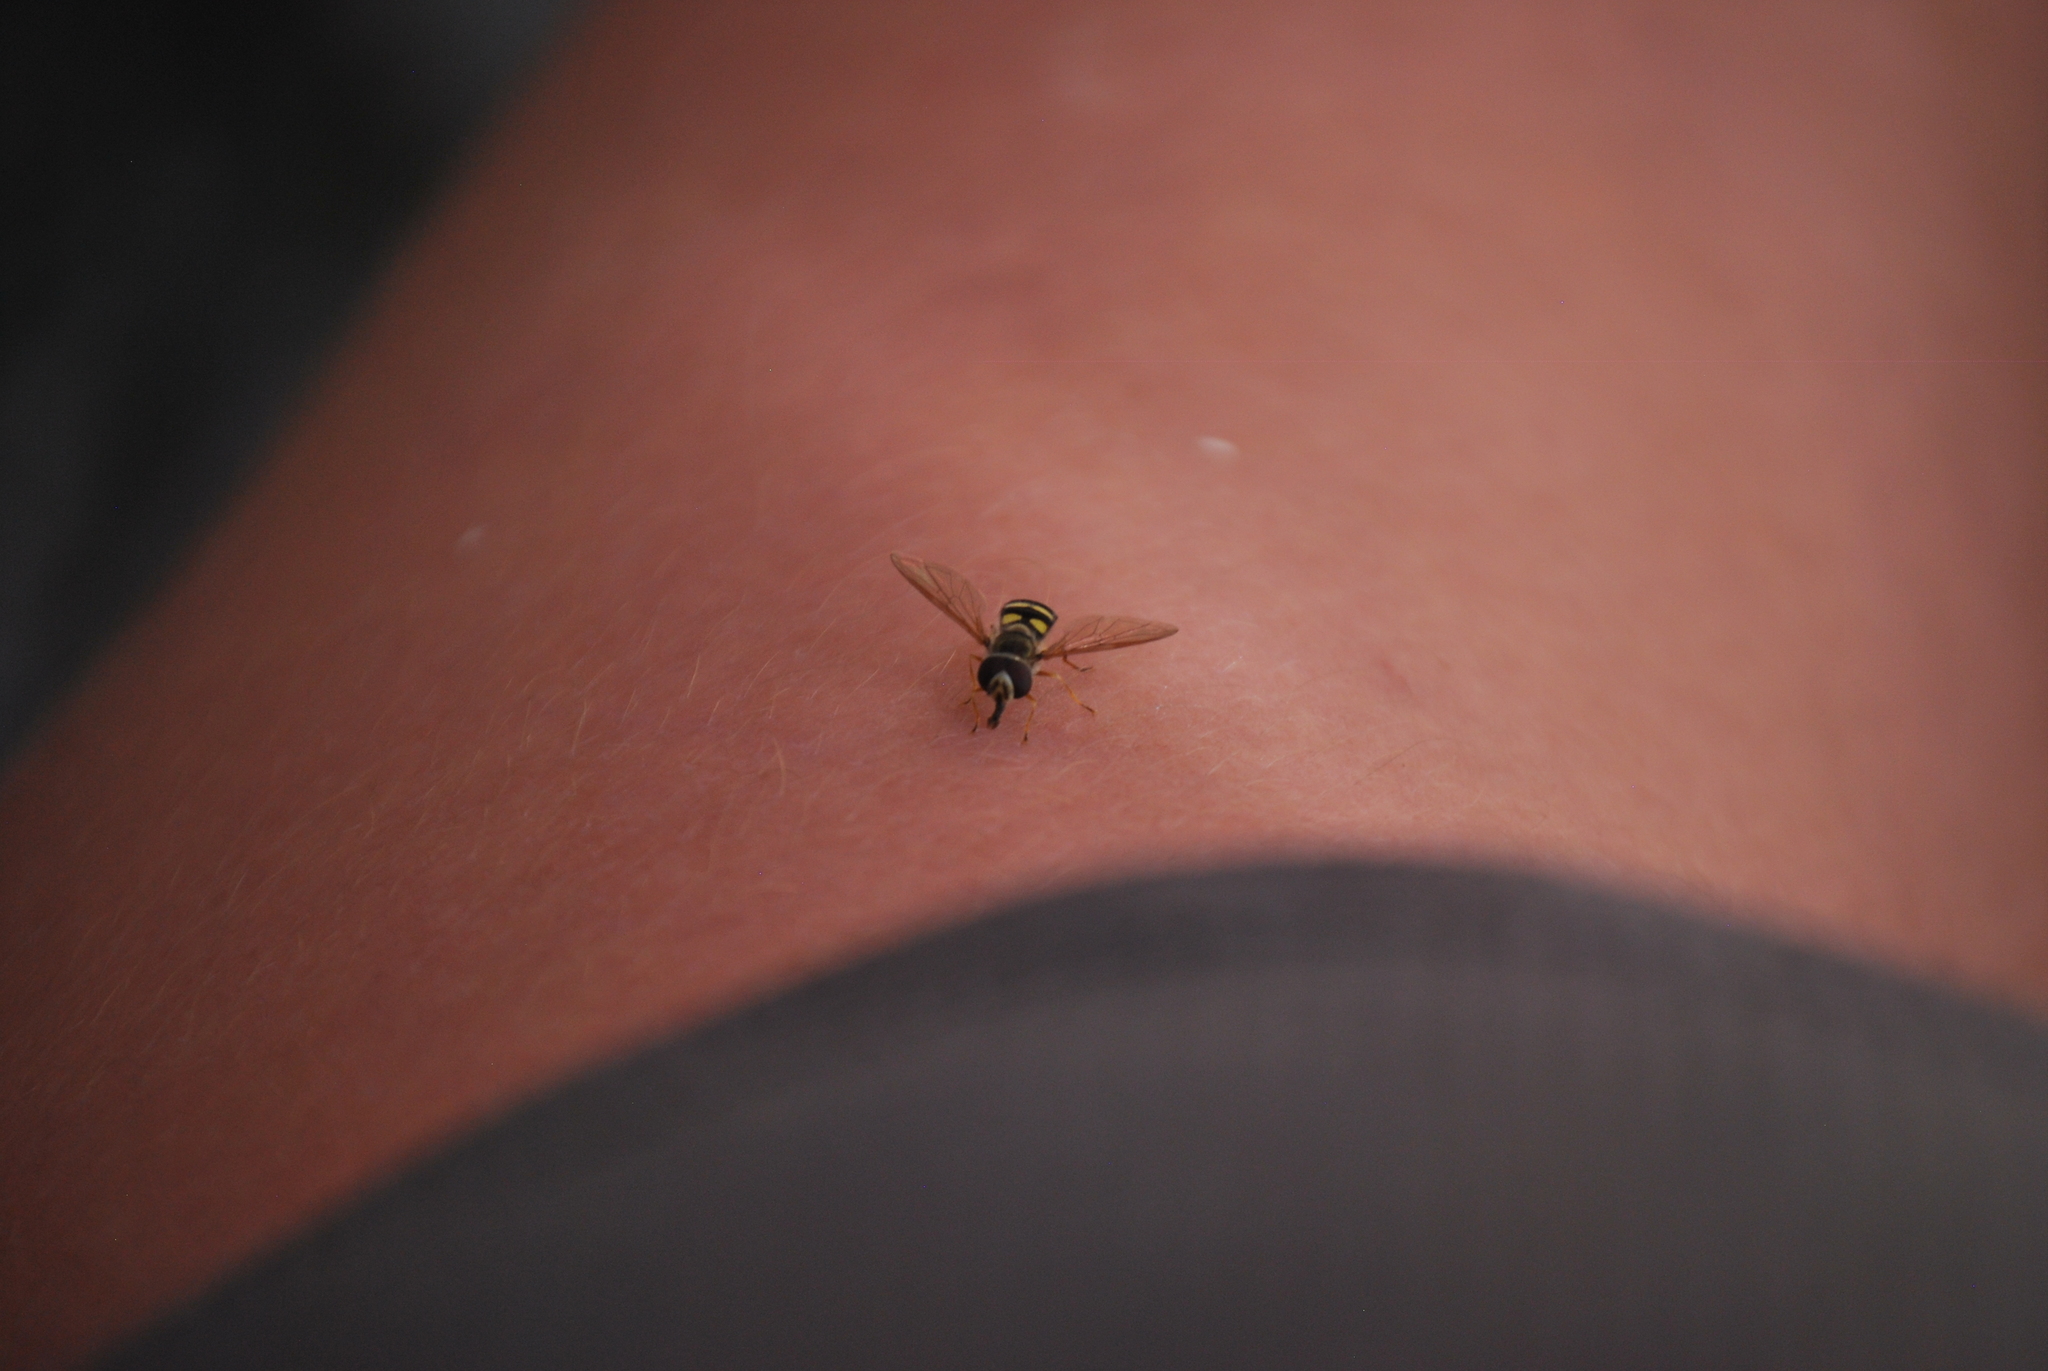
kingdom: Animalia
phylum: Arthropoda
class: Insecta
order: Diptera
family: Syrphidae
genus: Eupeodes
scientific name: Eupeodes
